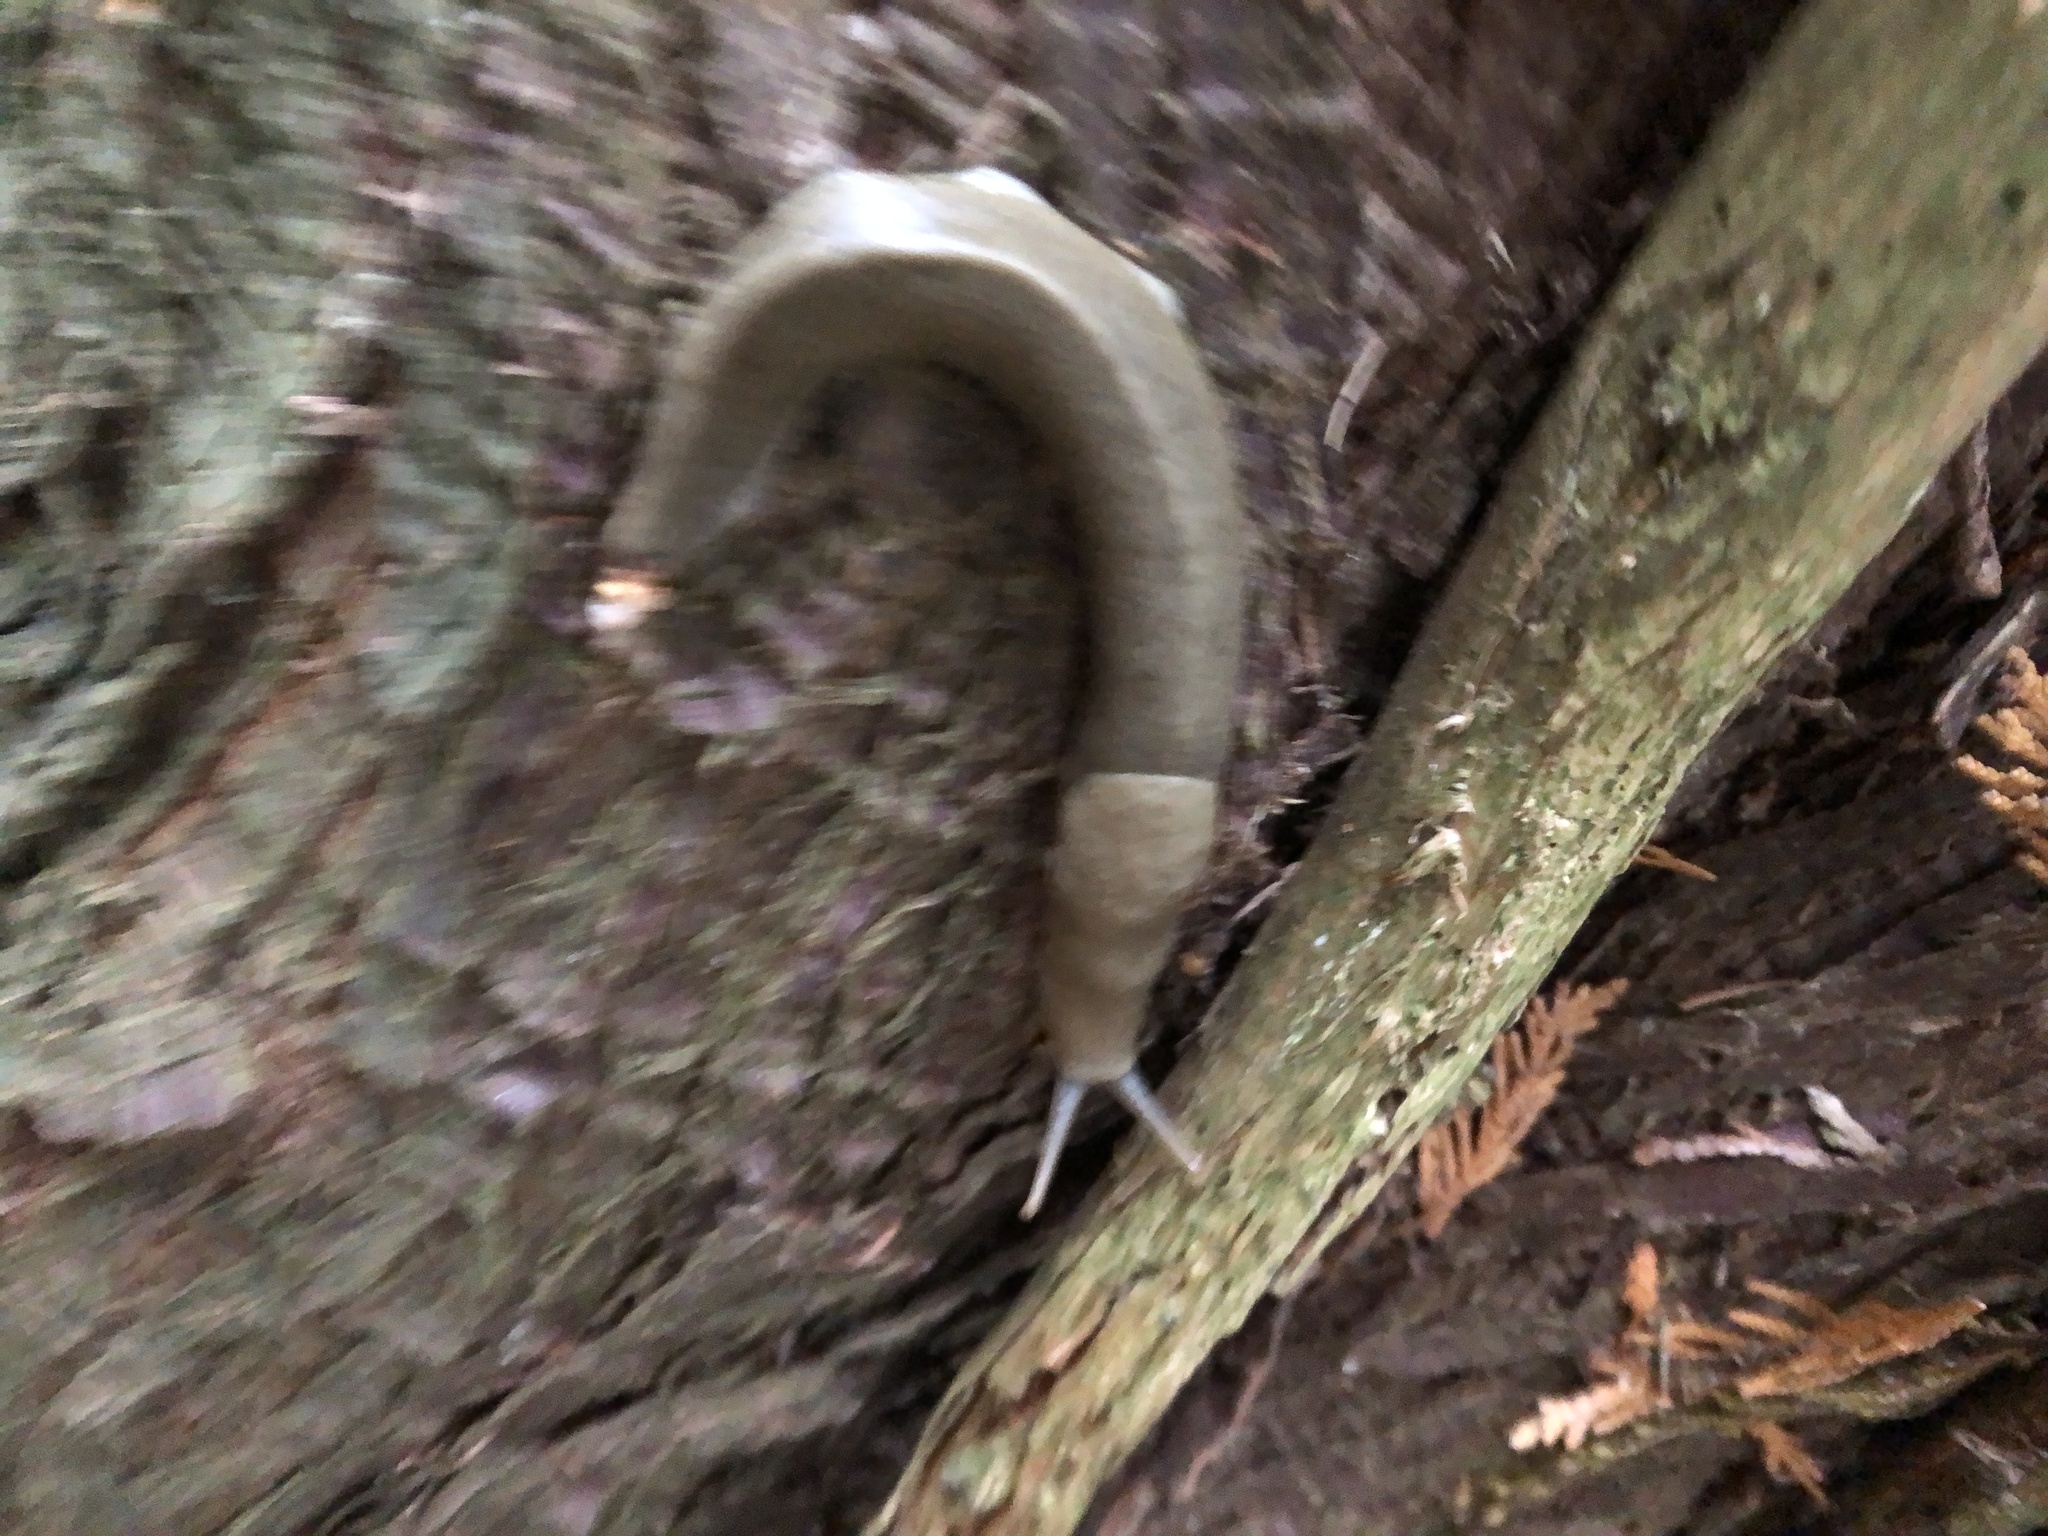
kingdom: Animalia
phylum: Mollusca
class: Gastropoda
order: Stylommatophora
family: Ariolimacidae
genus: Ariolimax
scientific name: Ariolimax columbianus
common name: Pacific banana slug
